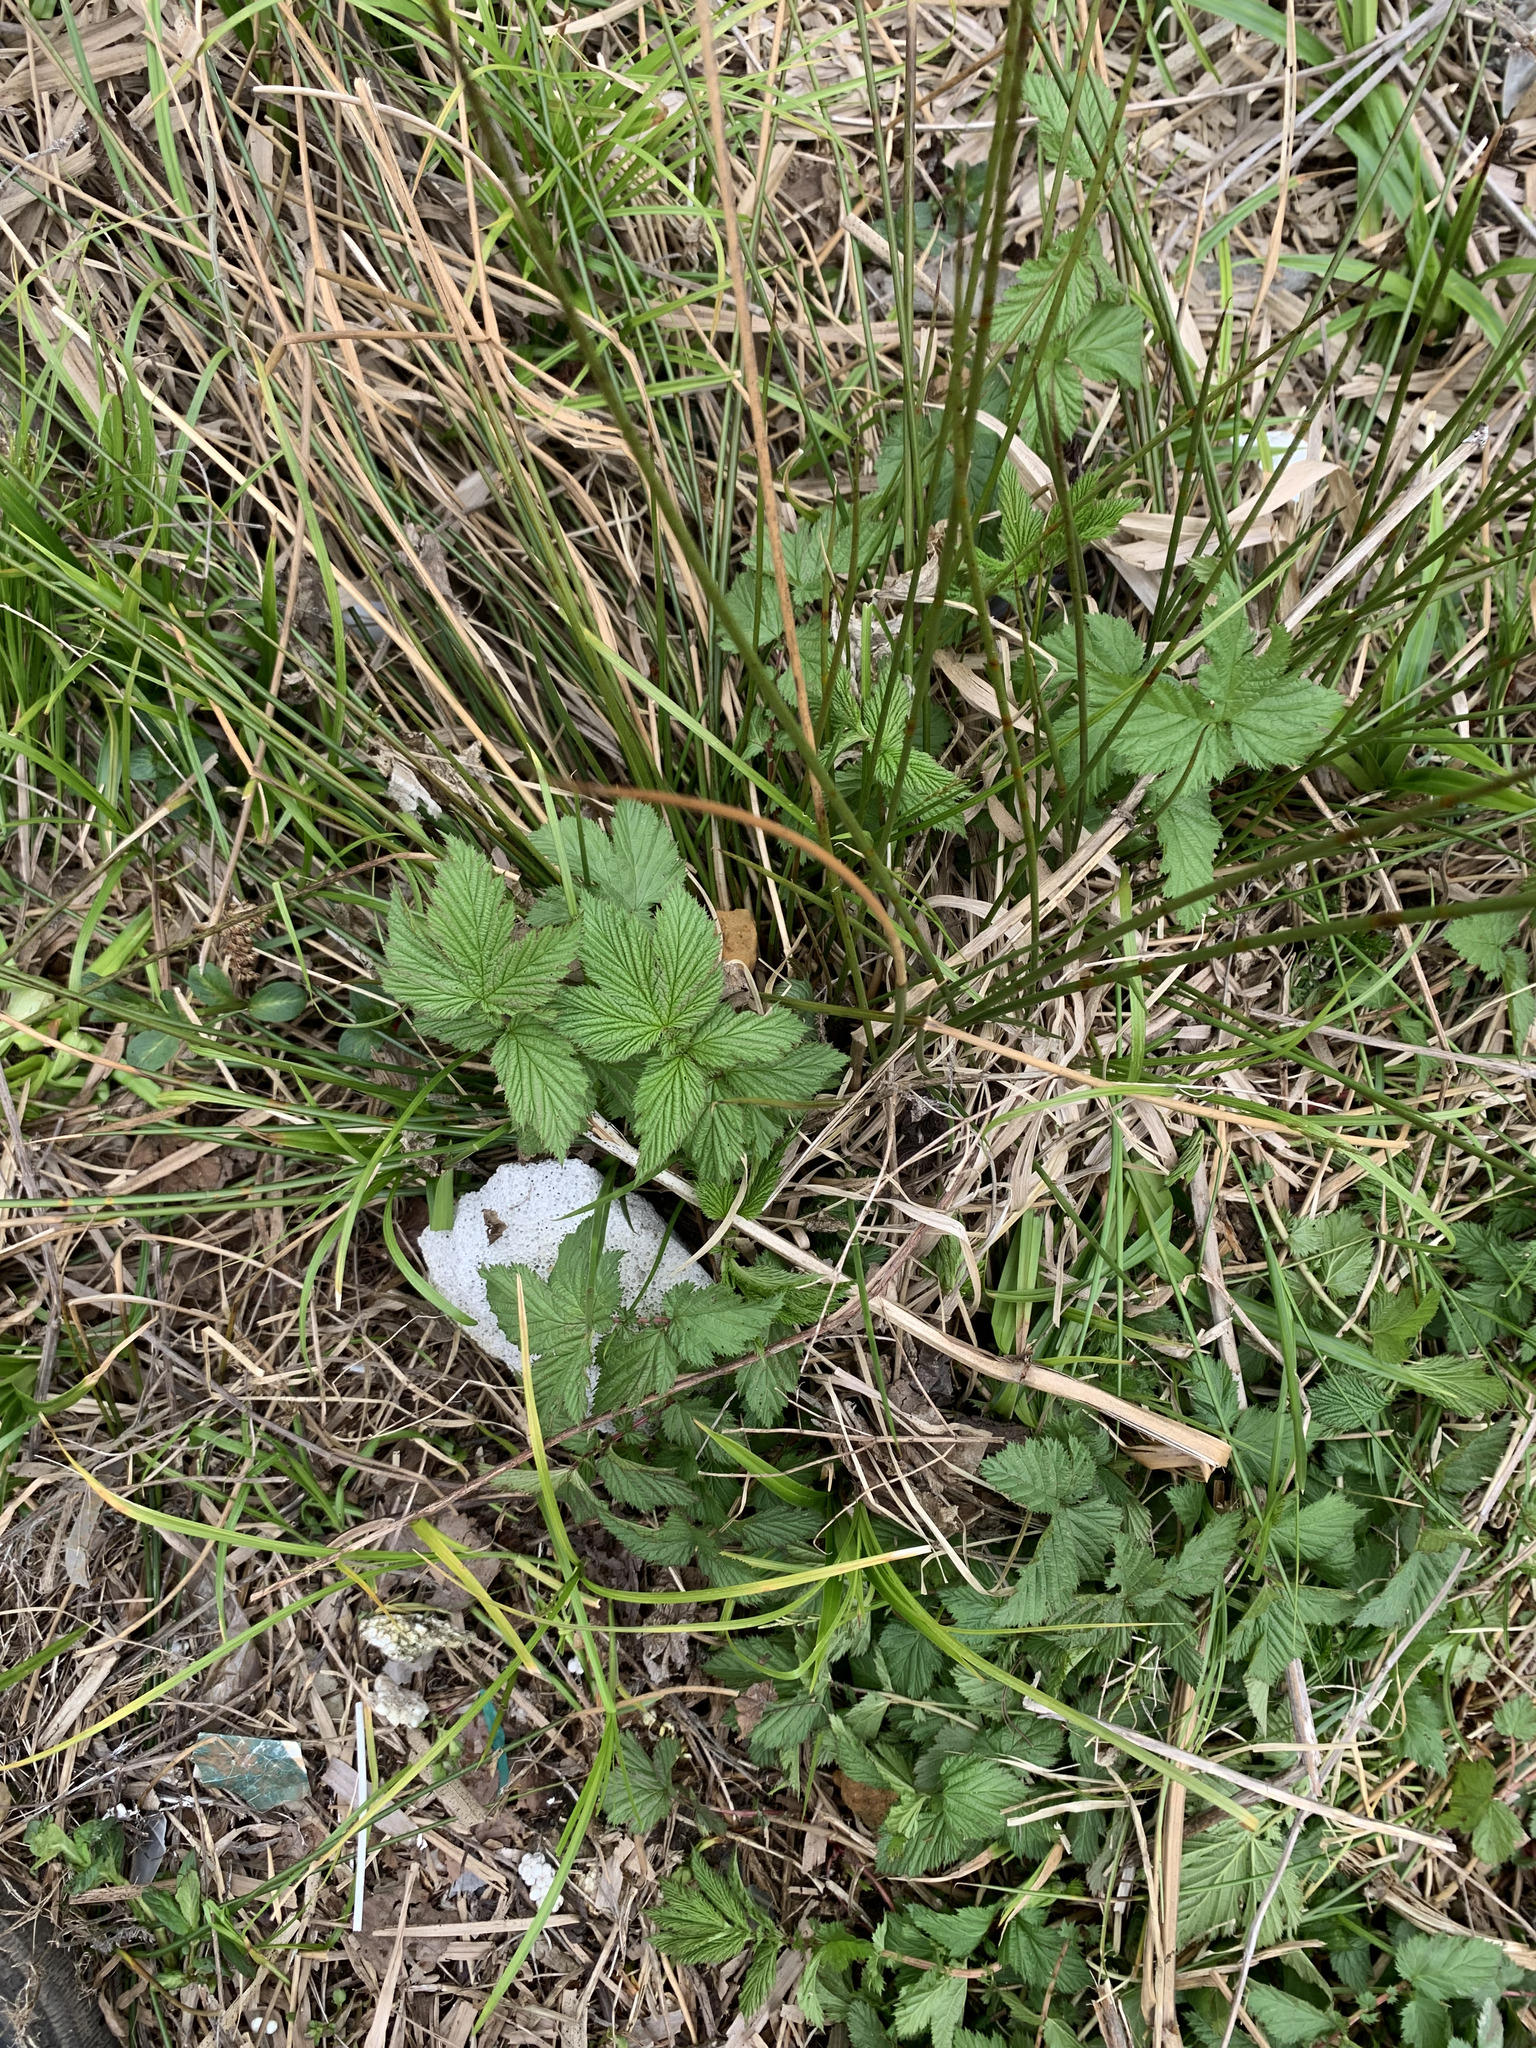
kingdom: Plantae
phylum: Tracheophyta
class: Magnoliopsida
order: Rosales
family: Rosaceae
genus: Filipendula
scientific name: Filipendula ulmaria
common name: Meadowsweet
